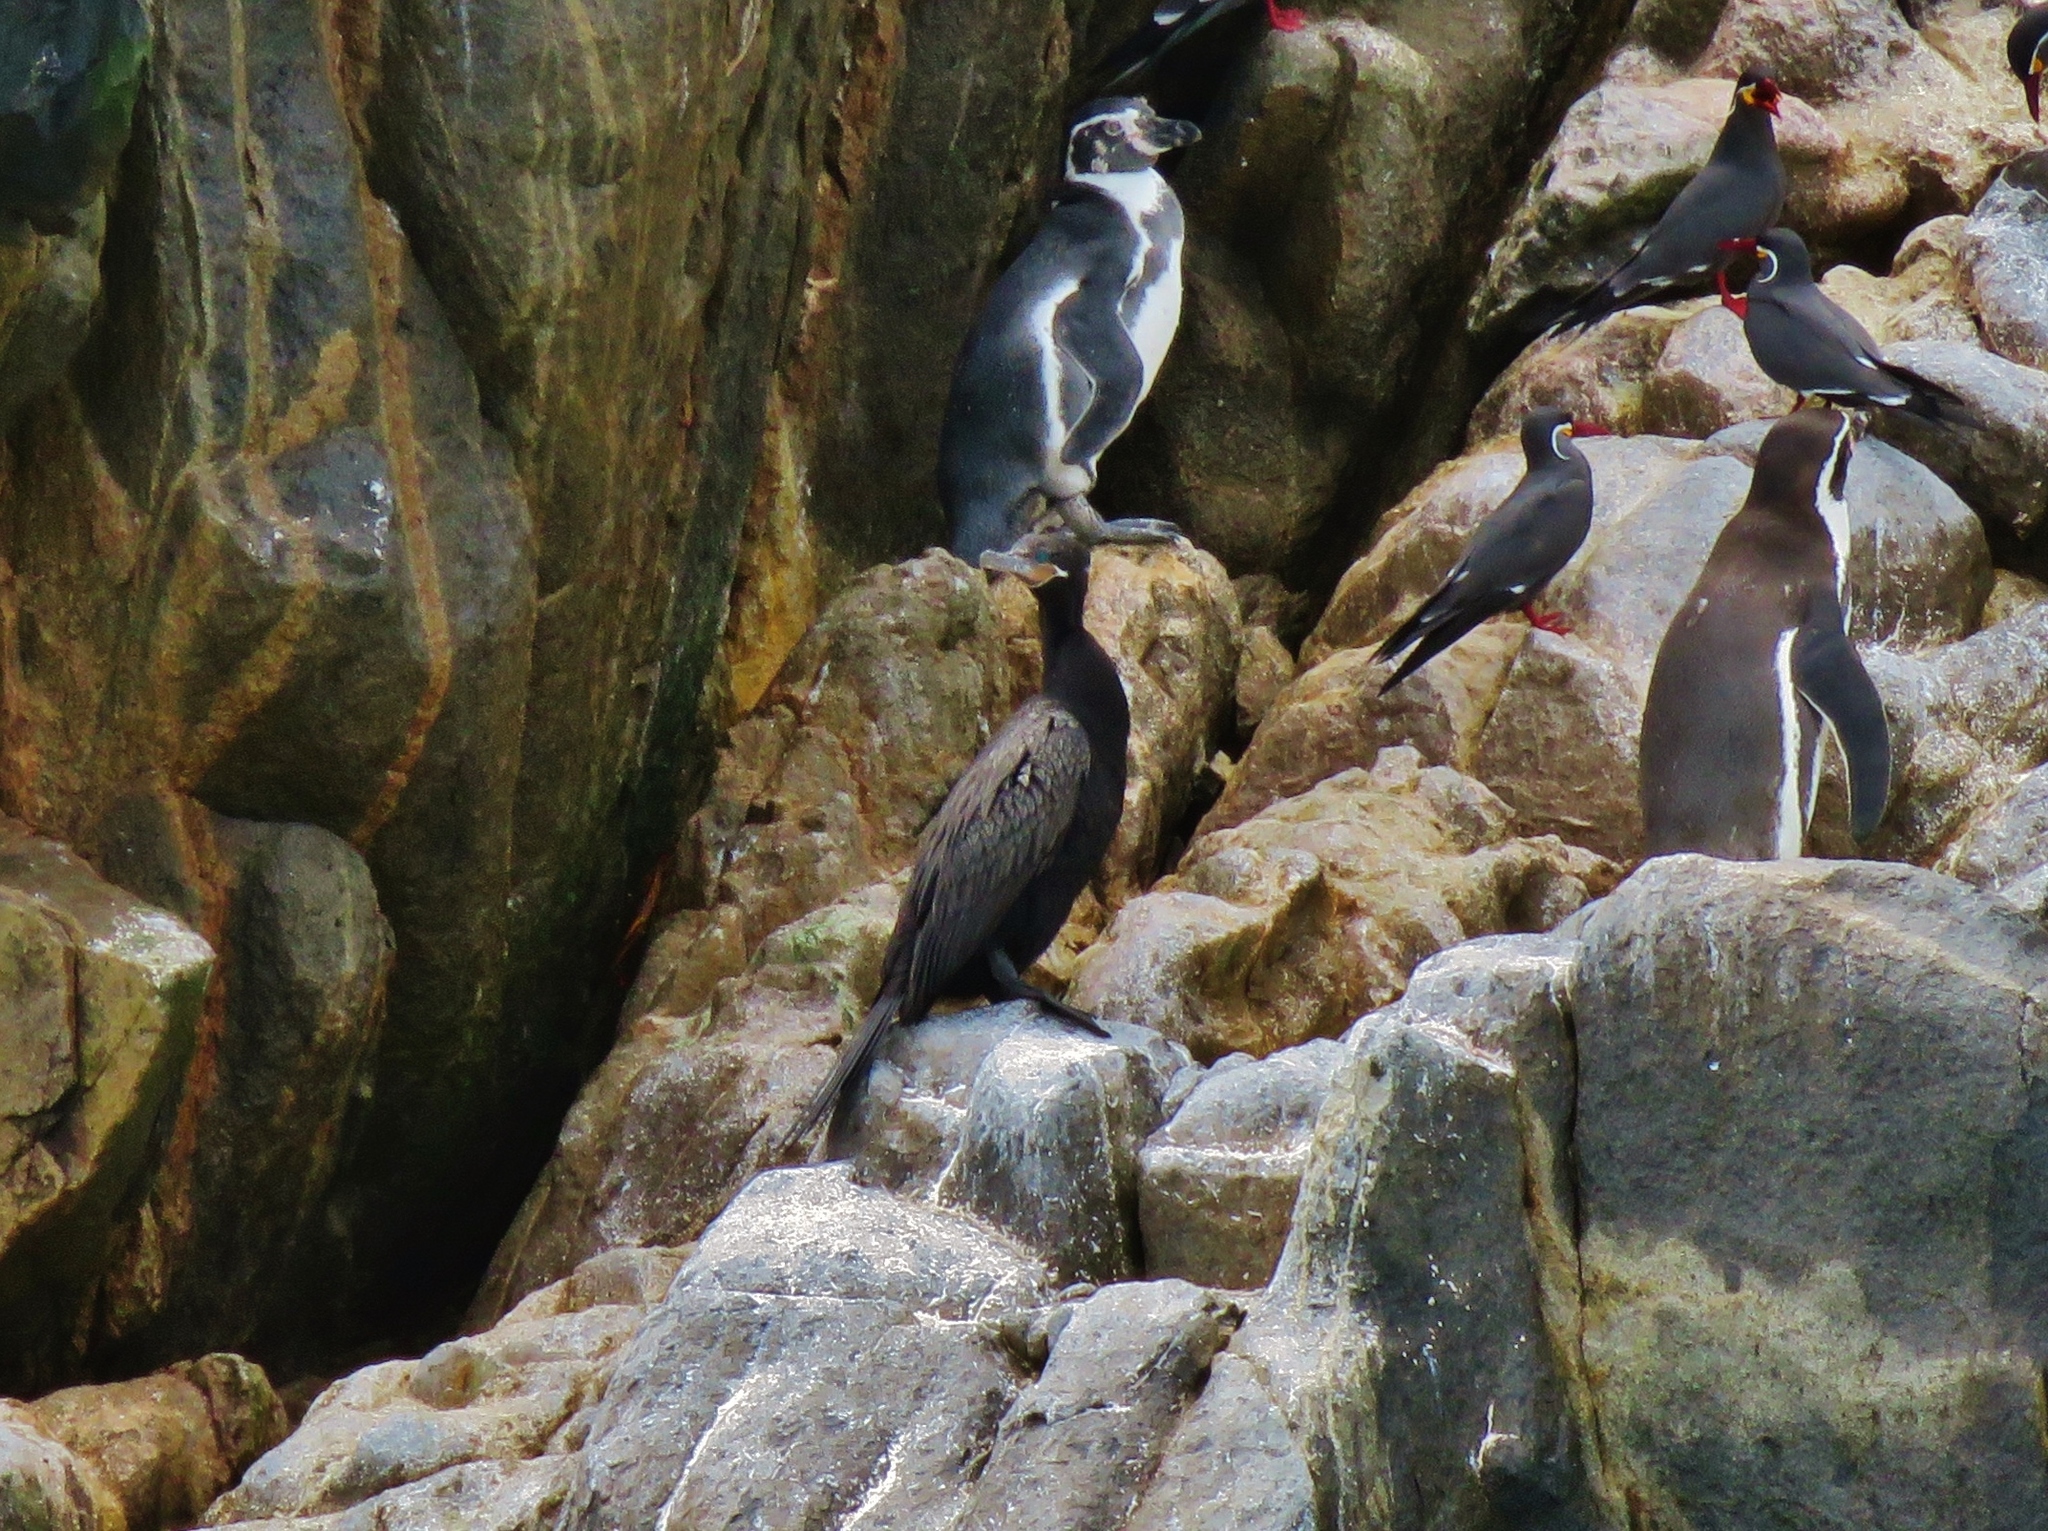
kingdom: Animalia
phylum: Chordata
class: Aves
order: Suliformes
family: Phalacrocoracidae
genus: Phalacrocorax
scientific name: Phalacrocorax brasilianus
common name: Neotropic cormorant
